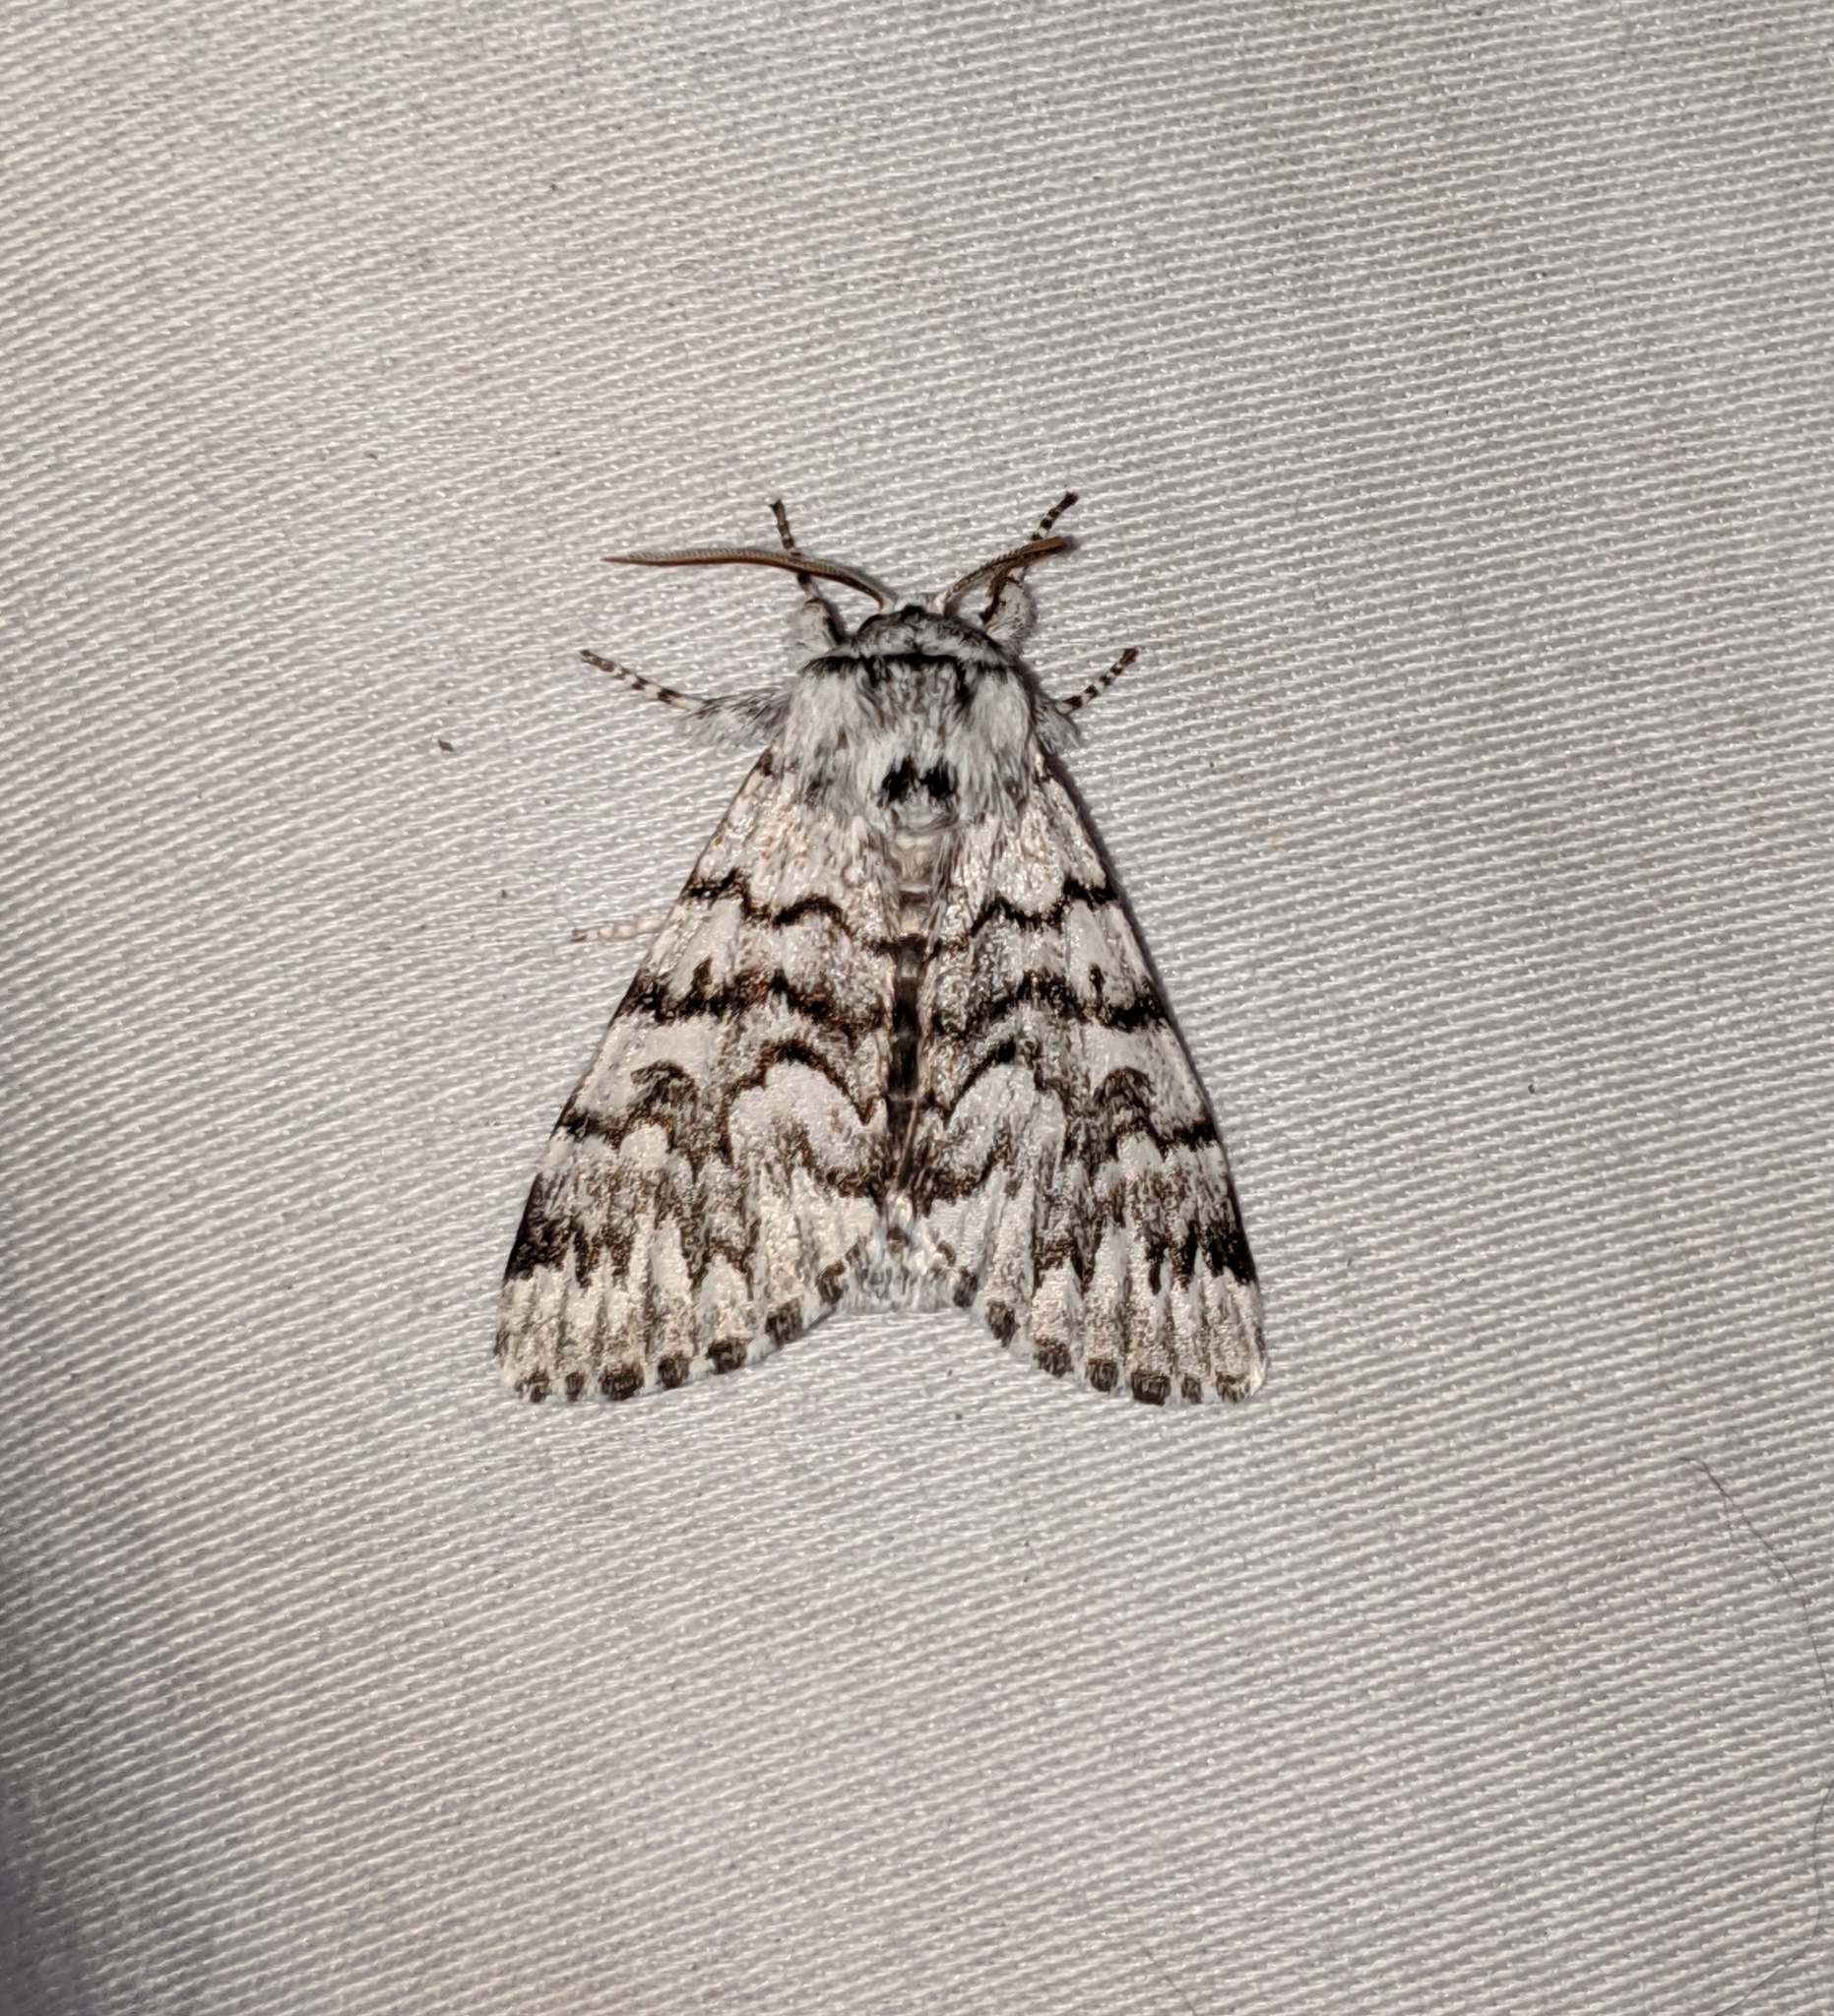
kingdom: Animalia
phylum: Arthropoda
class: Insecta
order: Lepidoptera
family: Noctuidae
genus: Panthea
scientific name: Panthea virginarius
